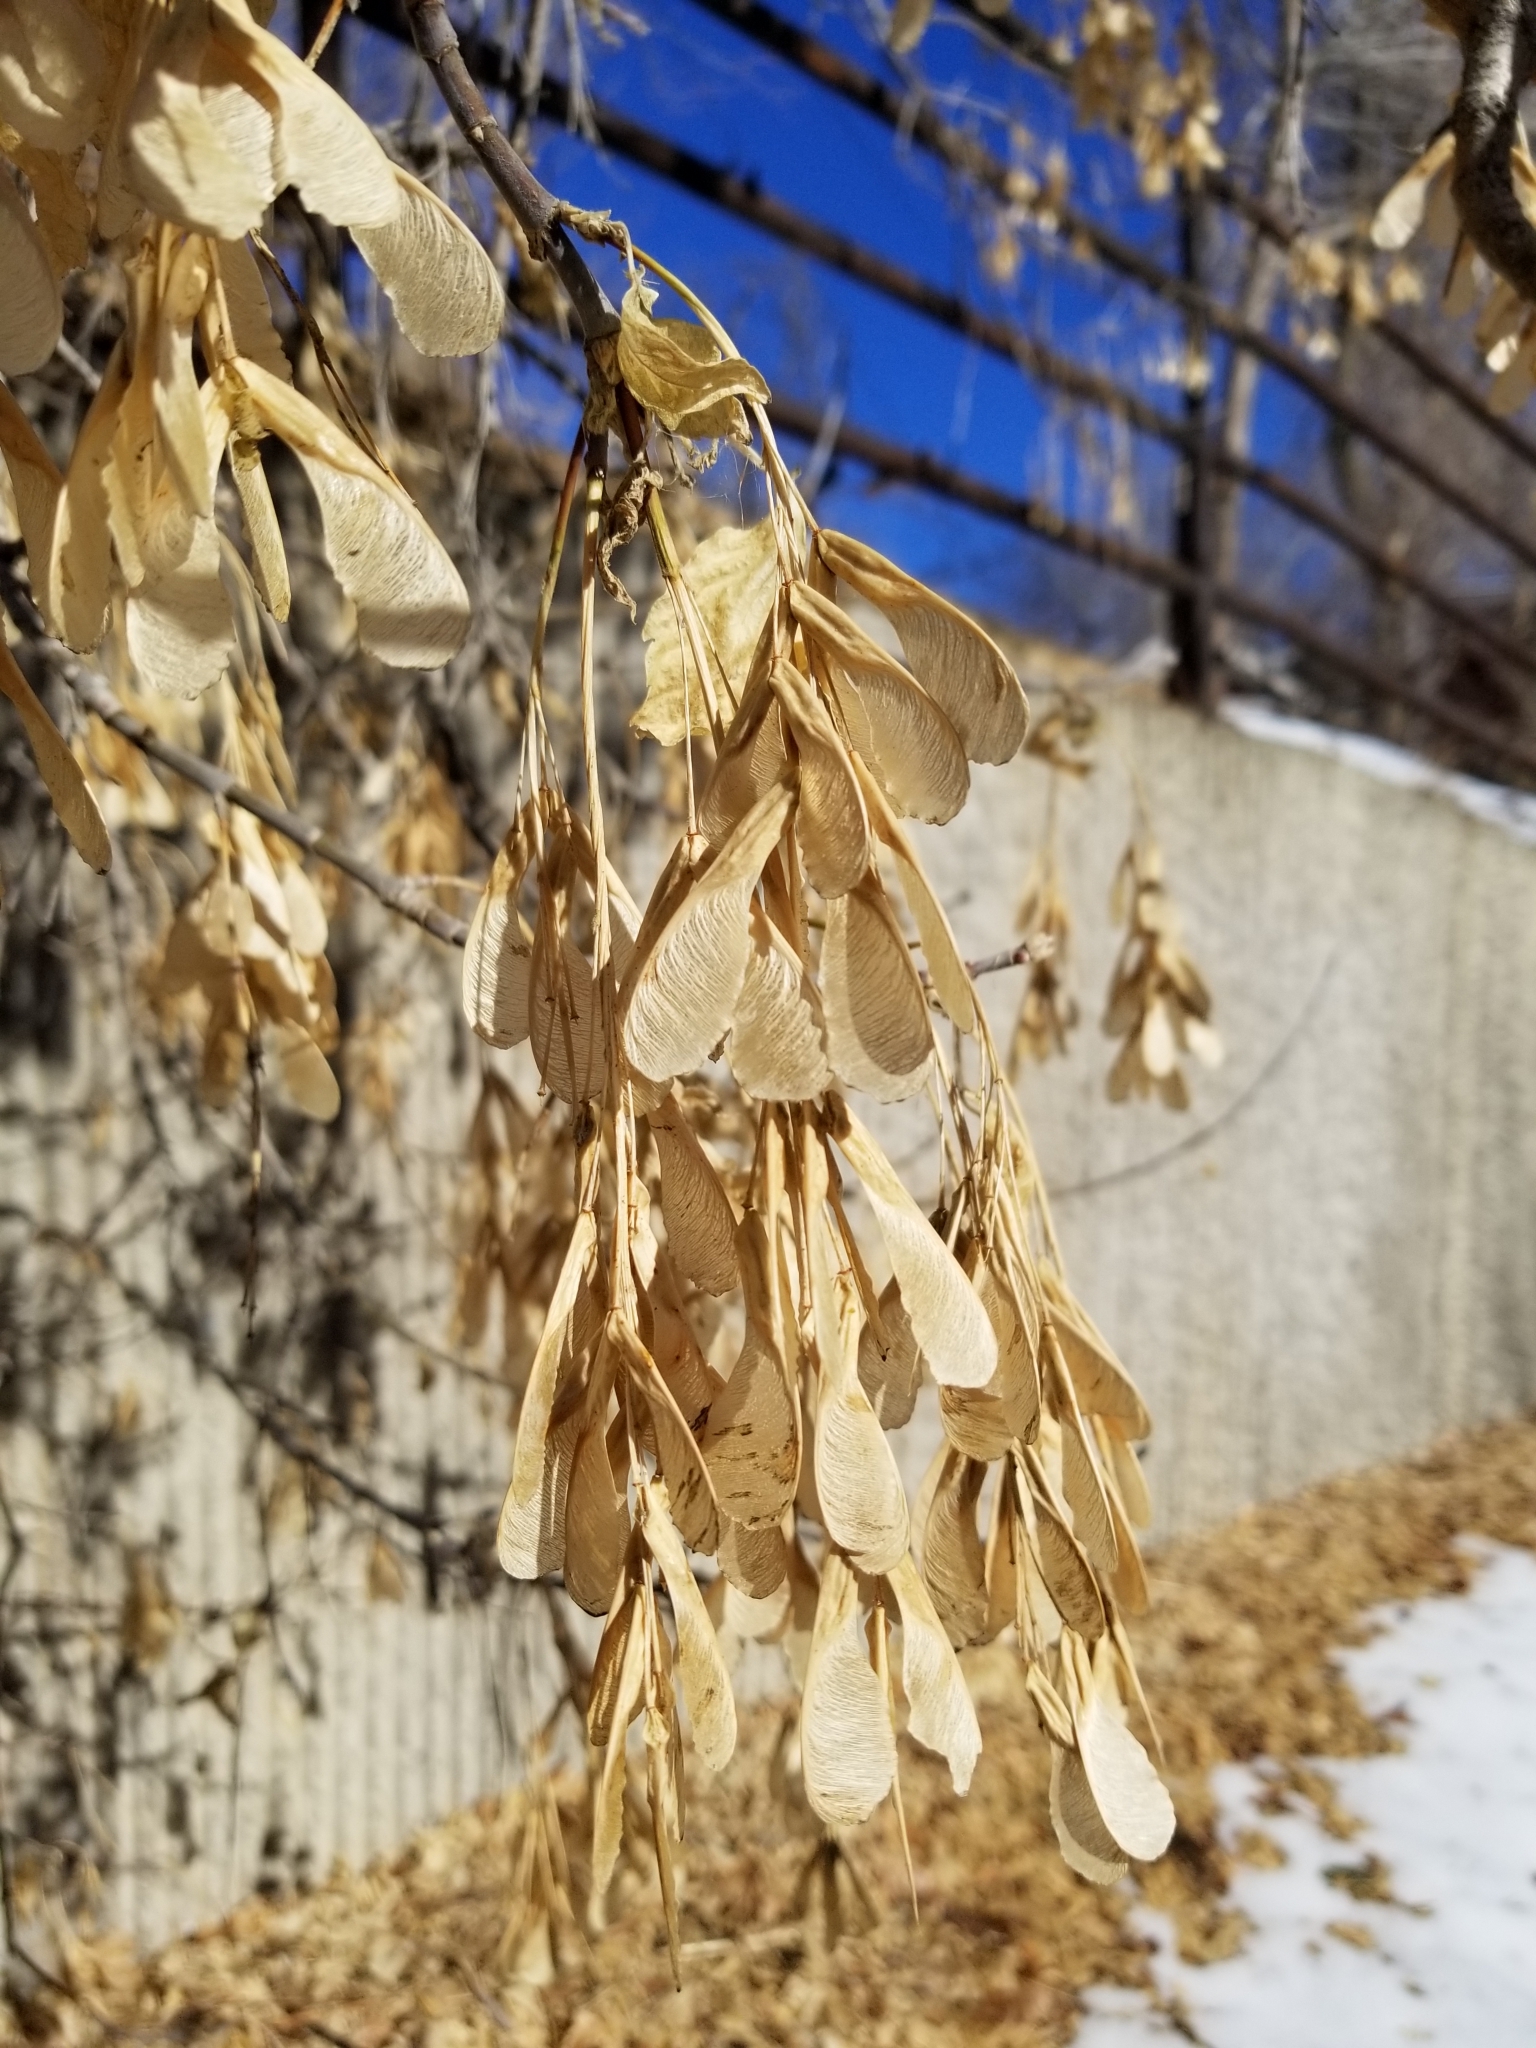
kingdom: Plantae
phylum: Tracheophyta
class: Magnoliopsida
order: Sapindales
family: Sapindaceae
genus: Acer
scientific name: Acer negundo
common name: Ashleaf maple
